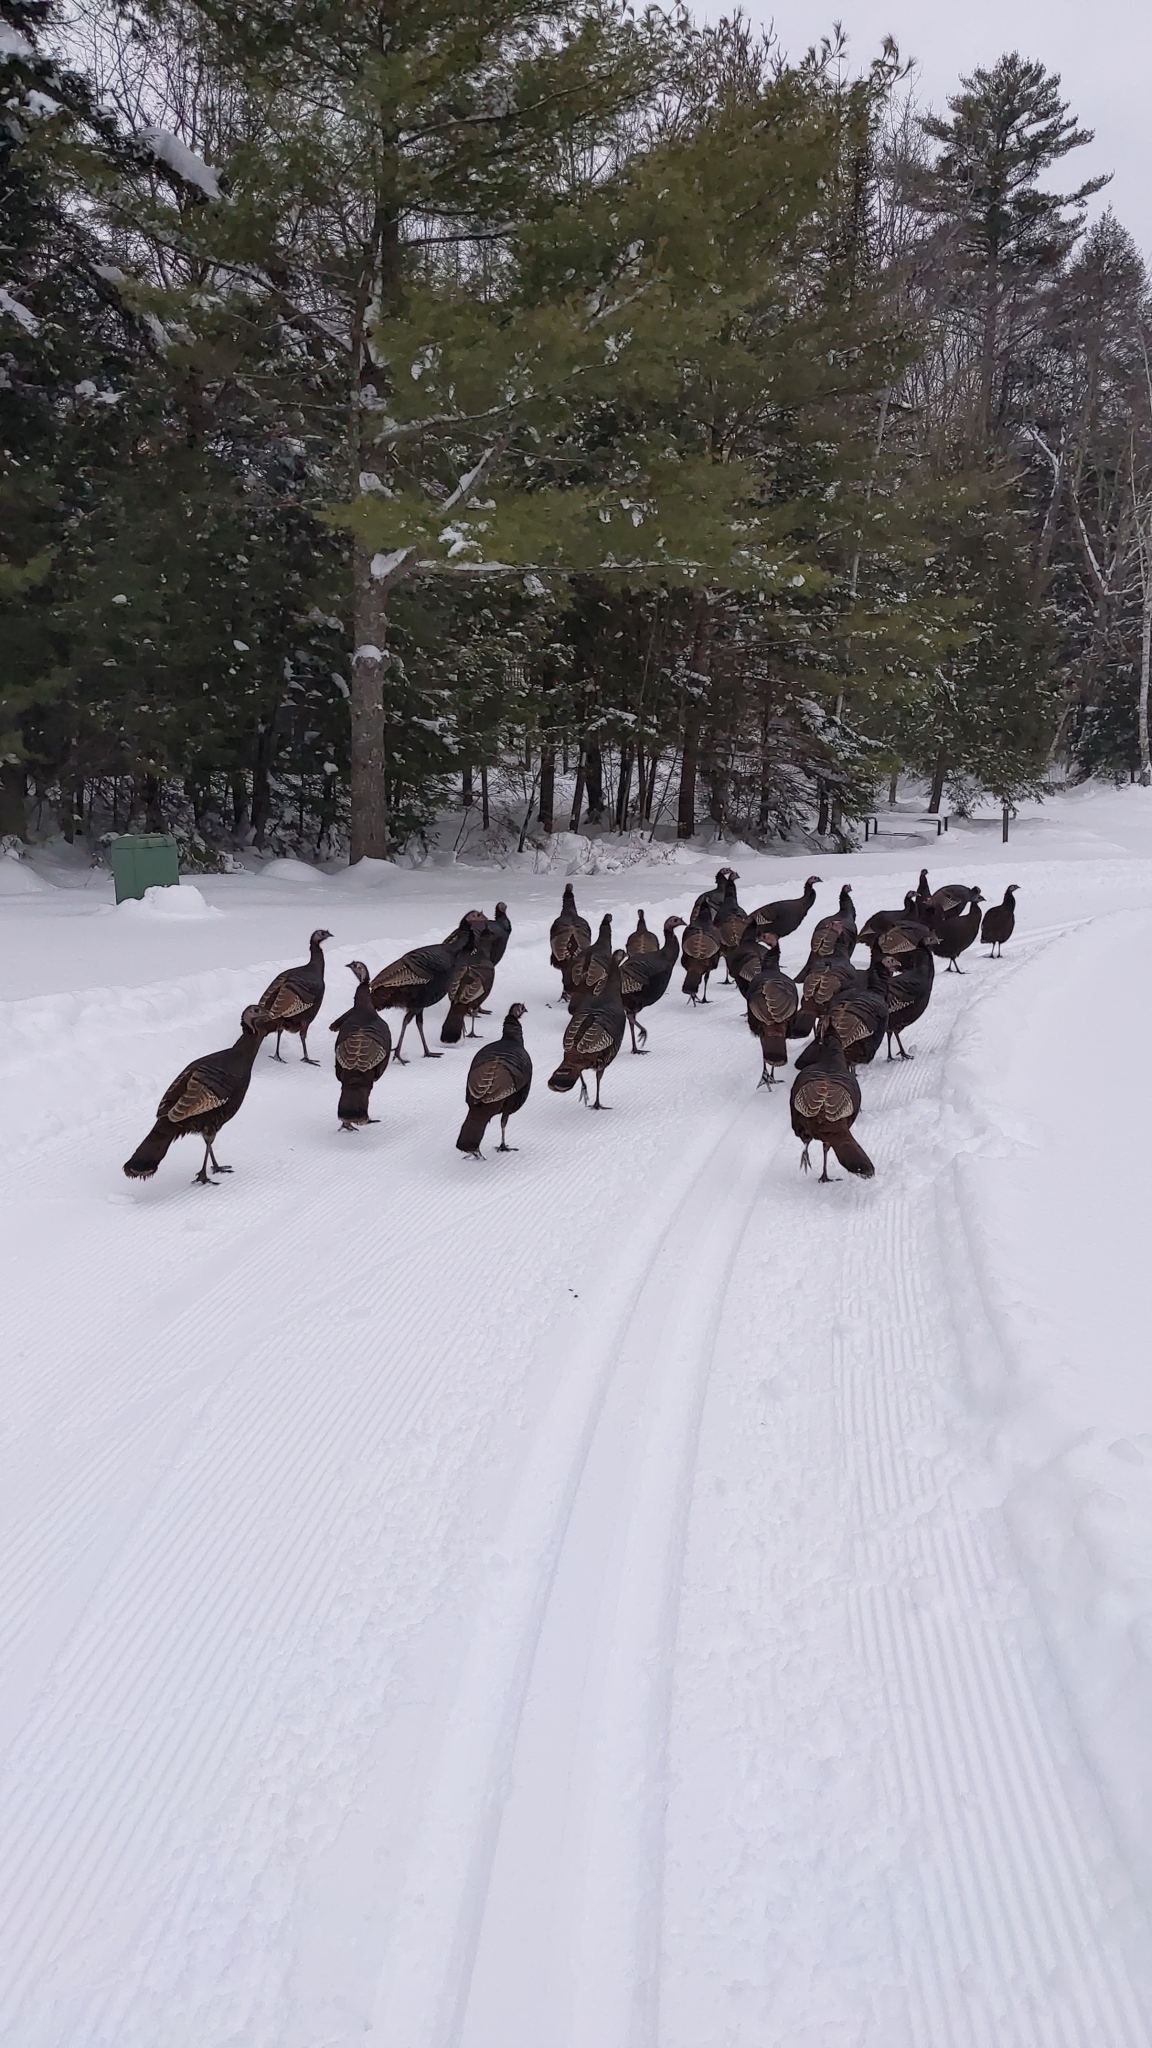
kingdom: Animalia
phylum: Chordata
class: Aves
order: Galliformes
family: Phasianidae
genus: Meleagris
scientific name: Meleagris gallopavo
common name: Wild turkey
